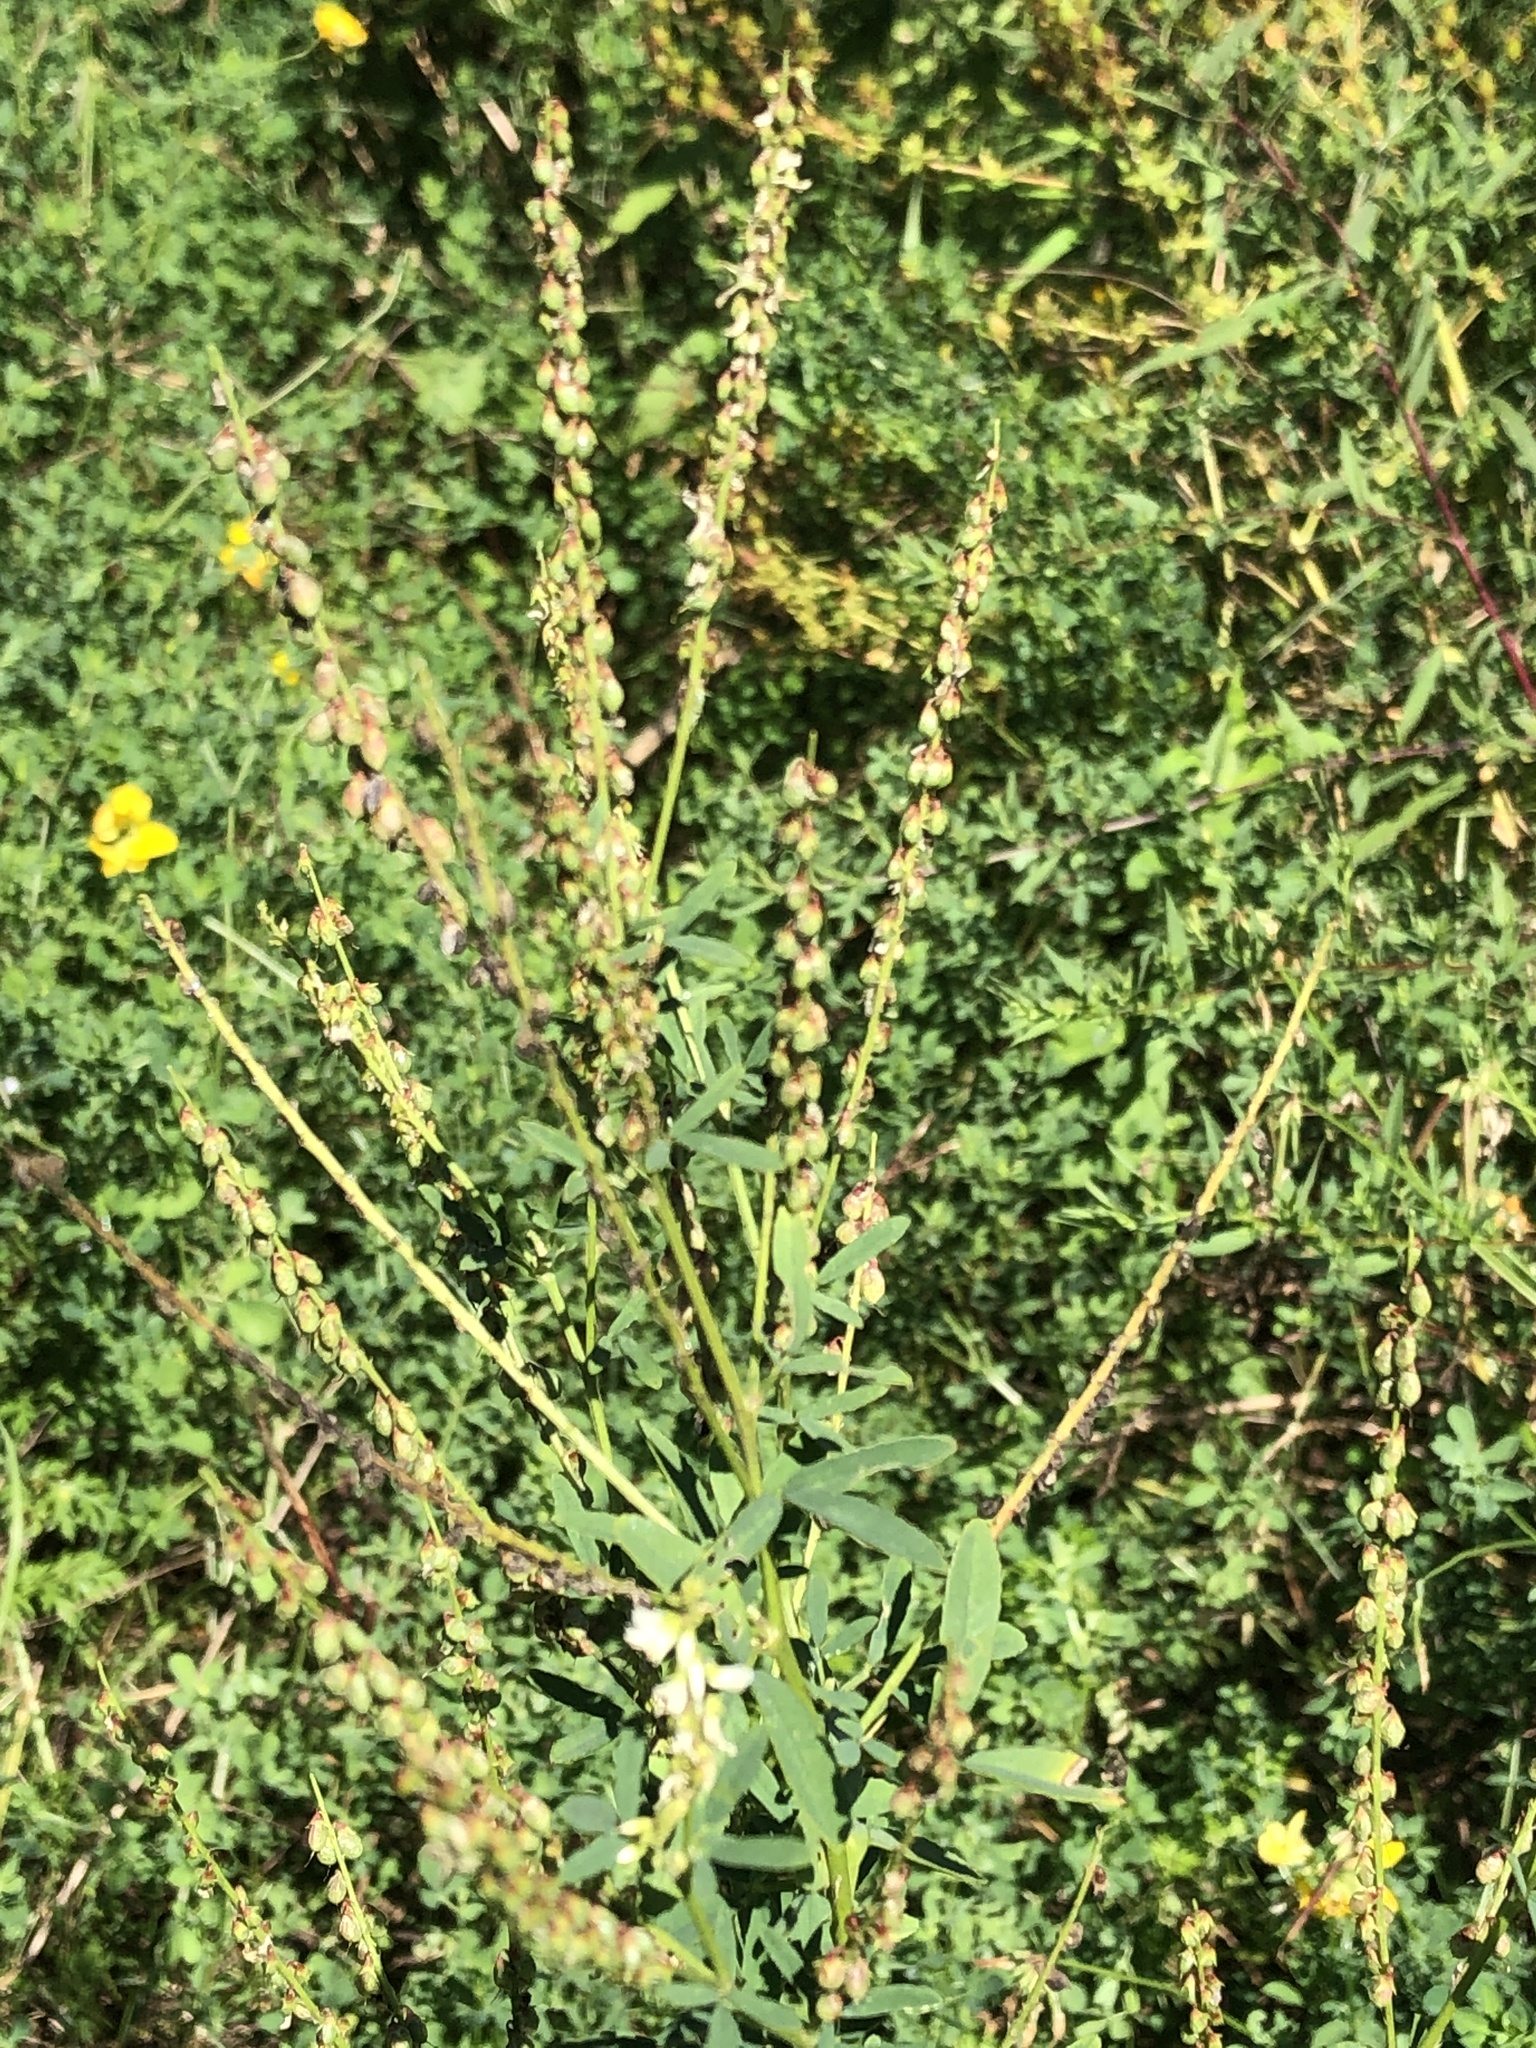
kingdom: Plantae
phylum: Tracheophyta
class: Magnoliopsida
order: Fabales
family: Fabaceae
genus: Melilotus
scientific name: Melilotus albus
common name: White melilot
